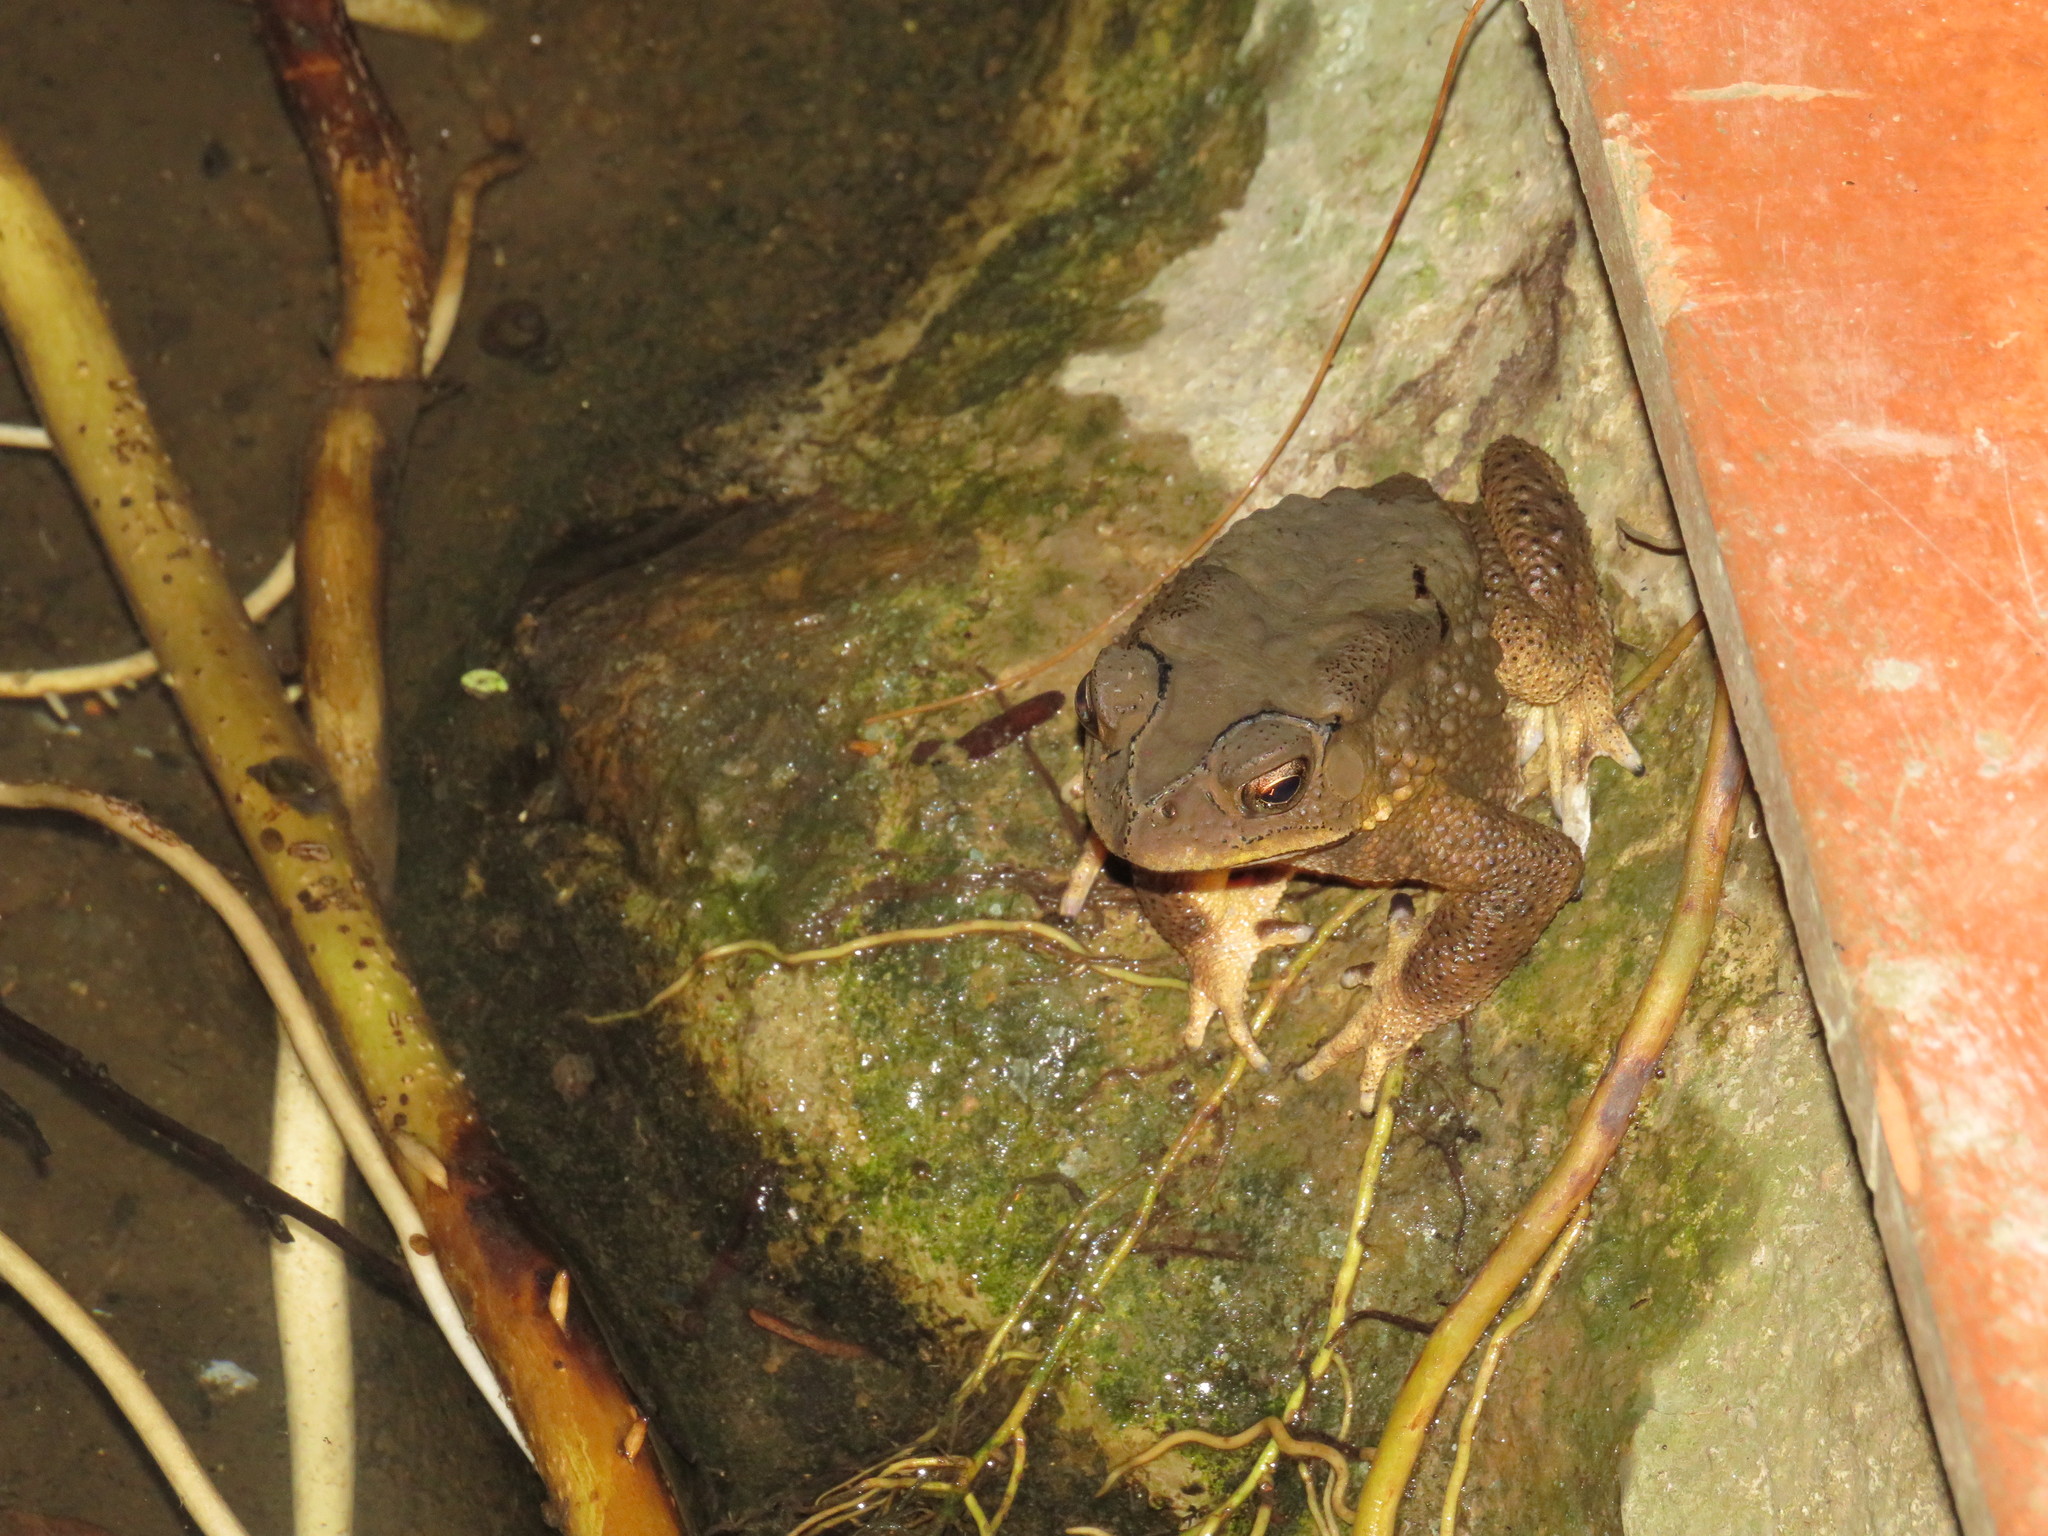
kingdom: Animalia
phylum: Chordata
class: Amphibia
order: Anura
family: Bufonidae
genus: Duttaphrynus
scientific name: Duttaphrynus melanostictus
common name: Common sunda toad
